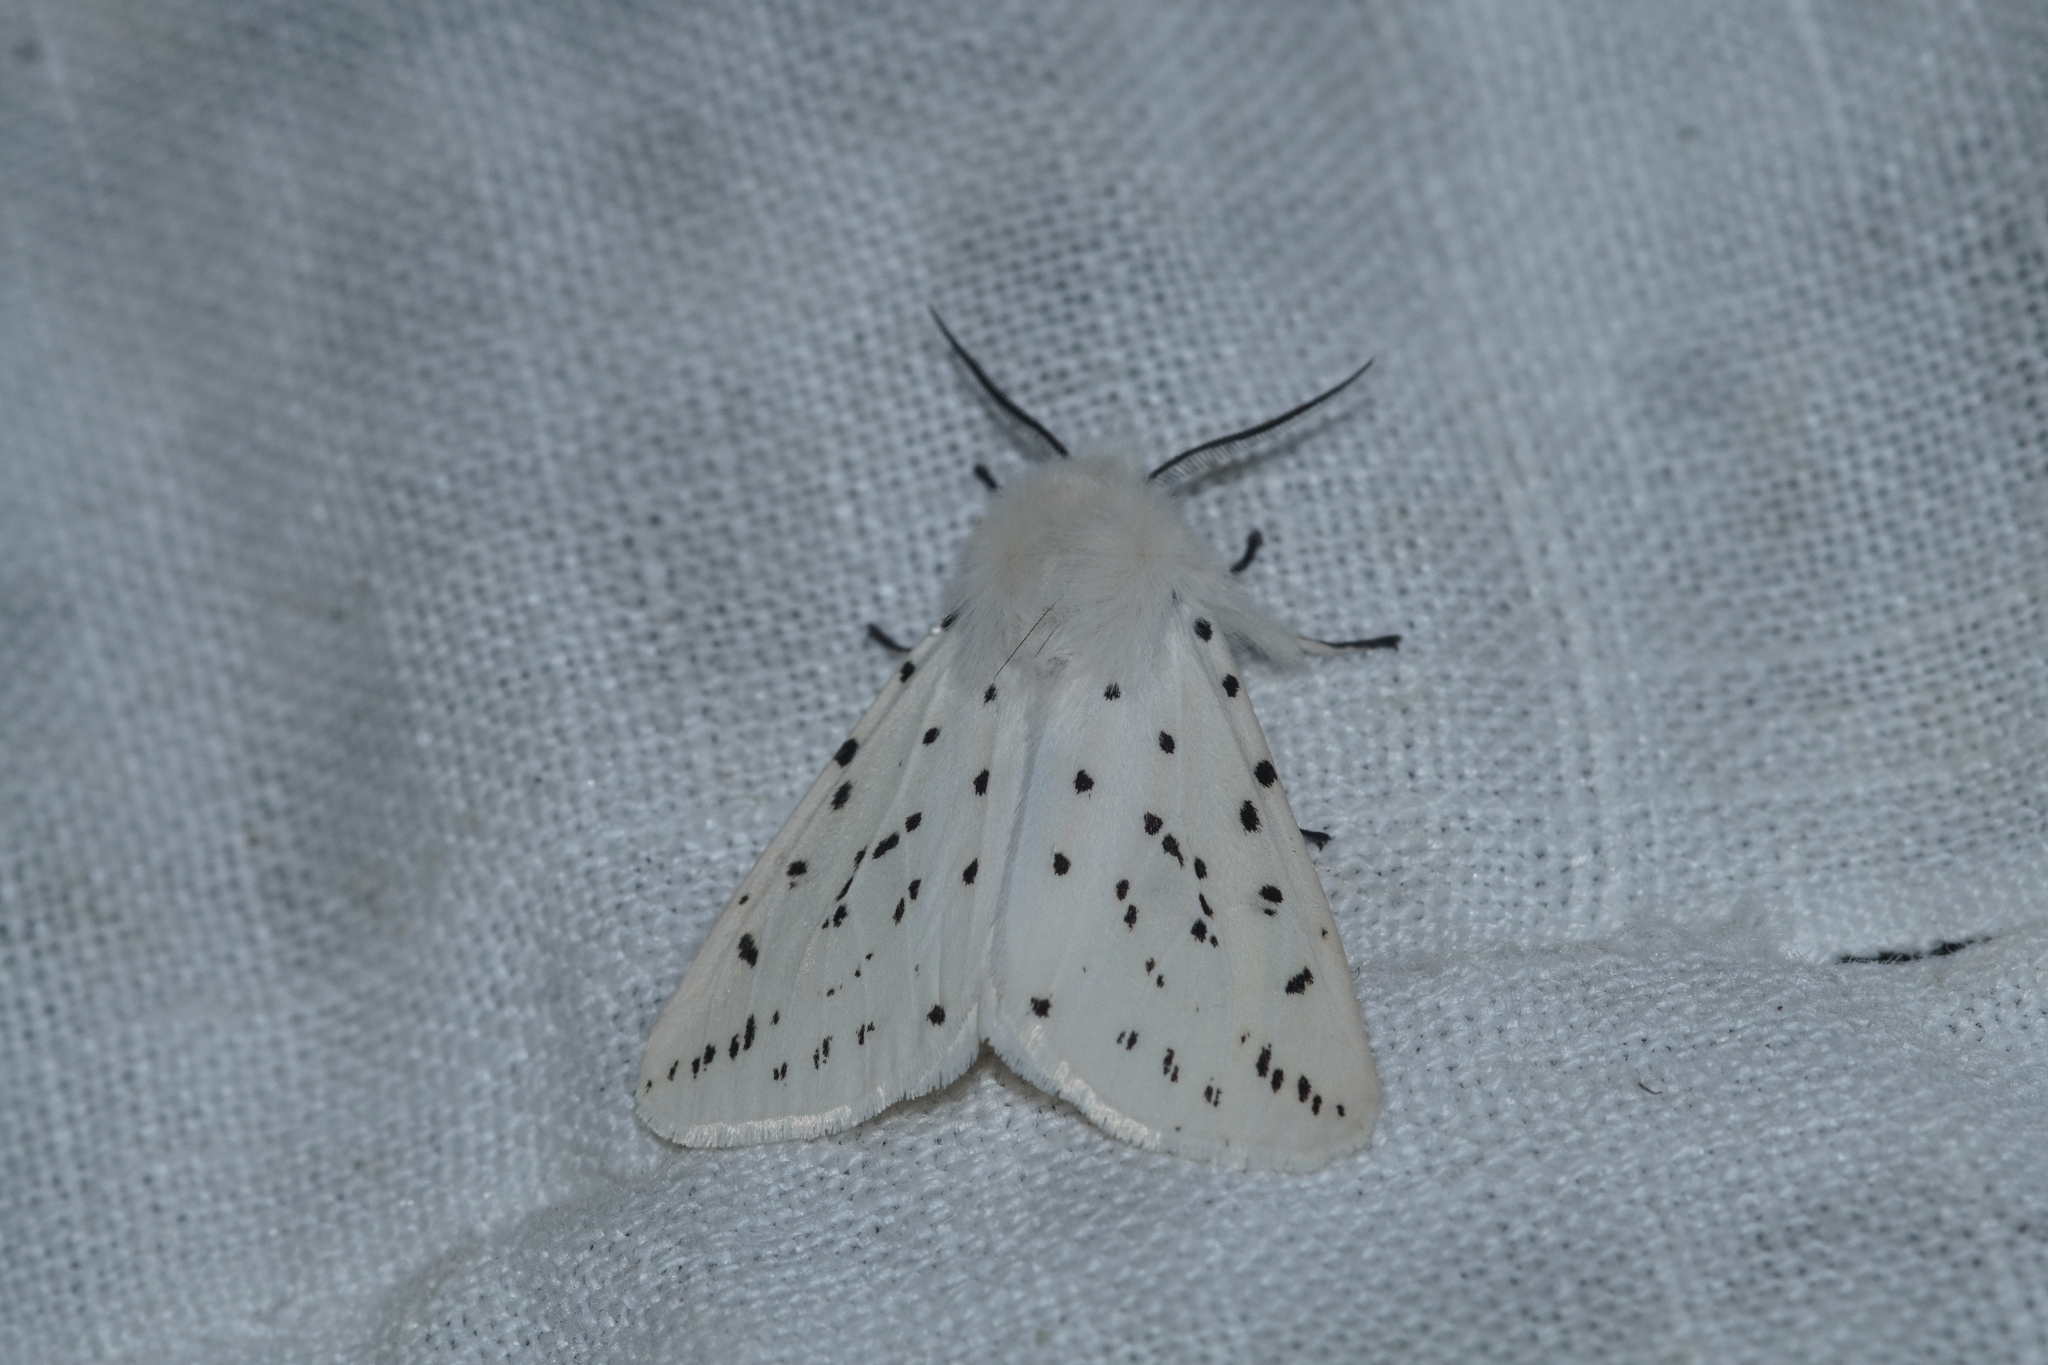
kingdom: Animalia
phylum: Arthropoda
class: Insecta
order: Lepidoptera
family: Erebidae
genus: Spilosoma
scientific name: Spilosoma lubricipeda
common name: White ermine
